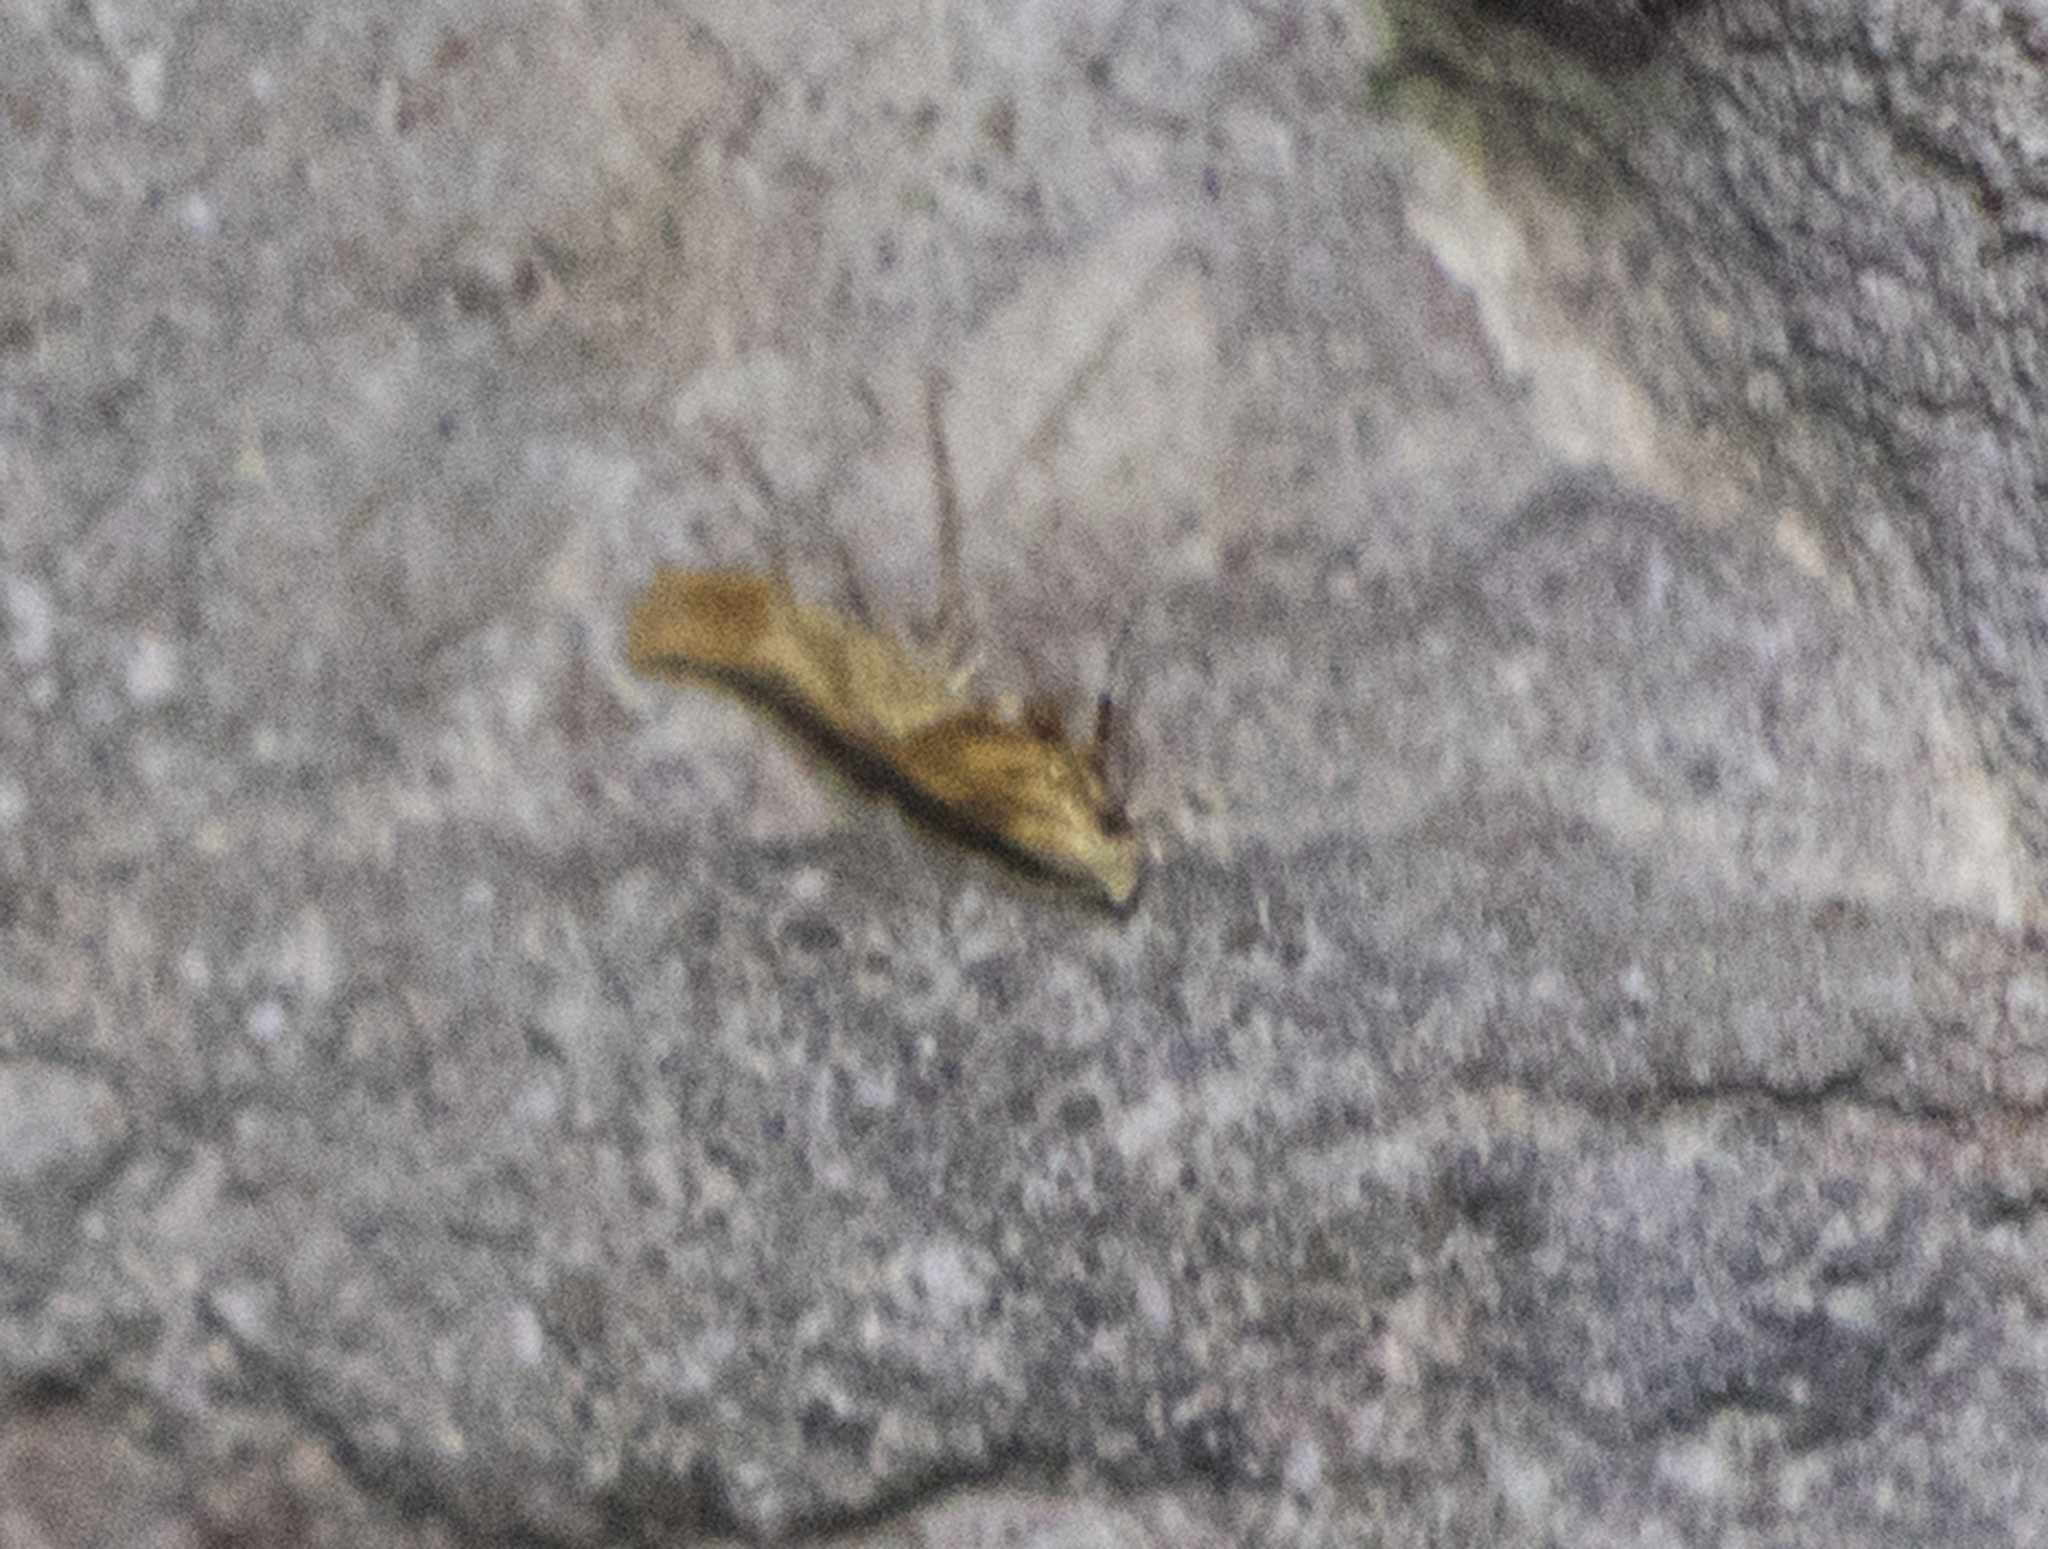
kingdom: Animalia
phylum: Arthropoda
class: Insecta
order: Lepidoptera
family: Gracillariidae
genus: Caloptilia
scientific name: Caloptilia stigmatella
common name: White-triangle slender
